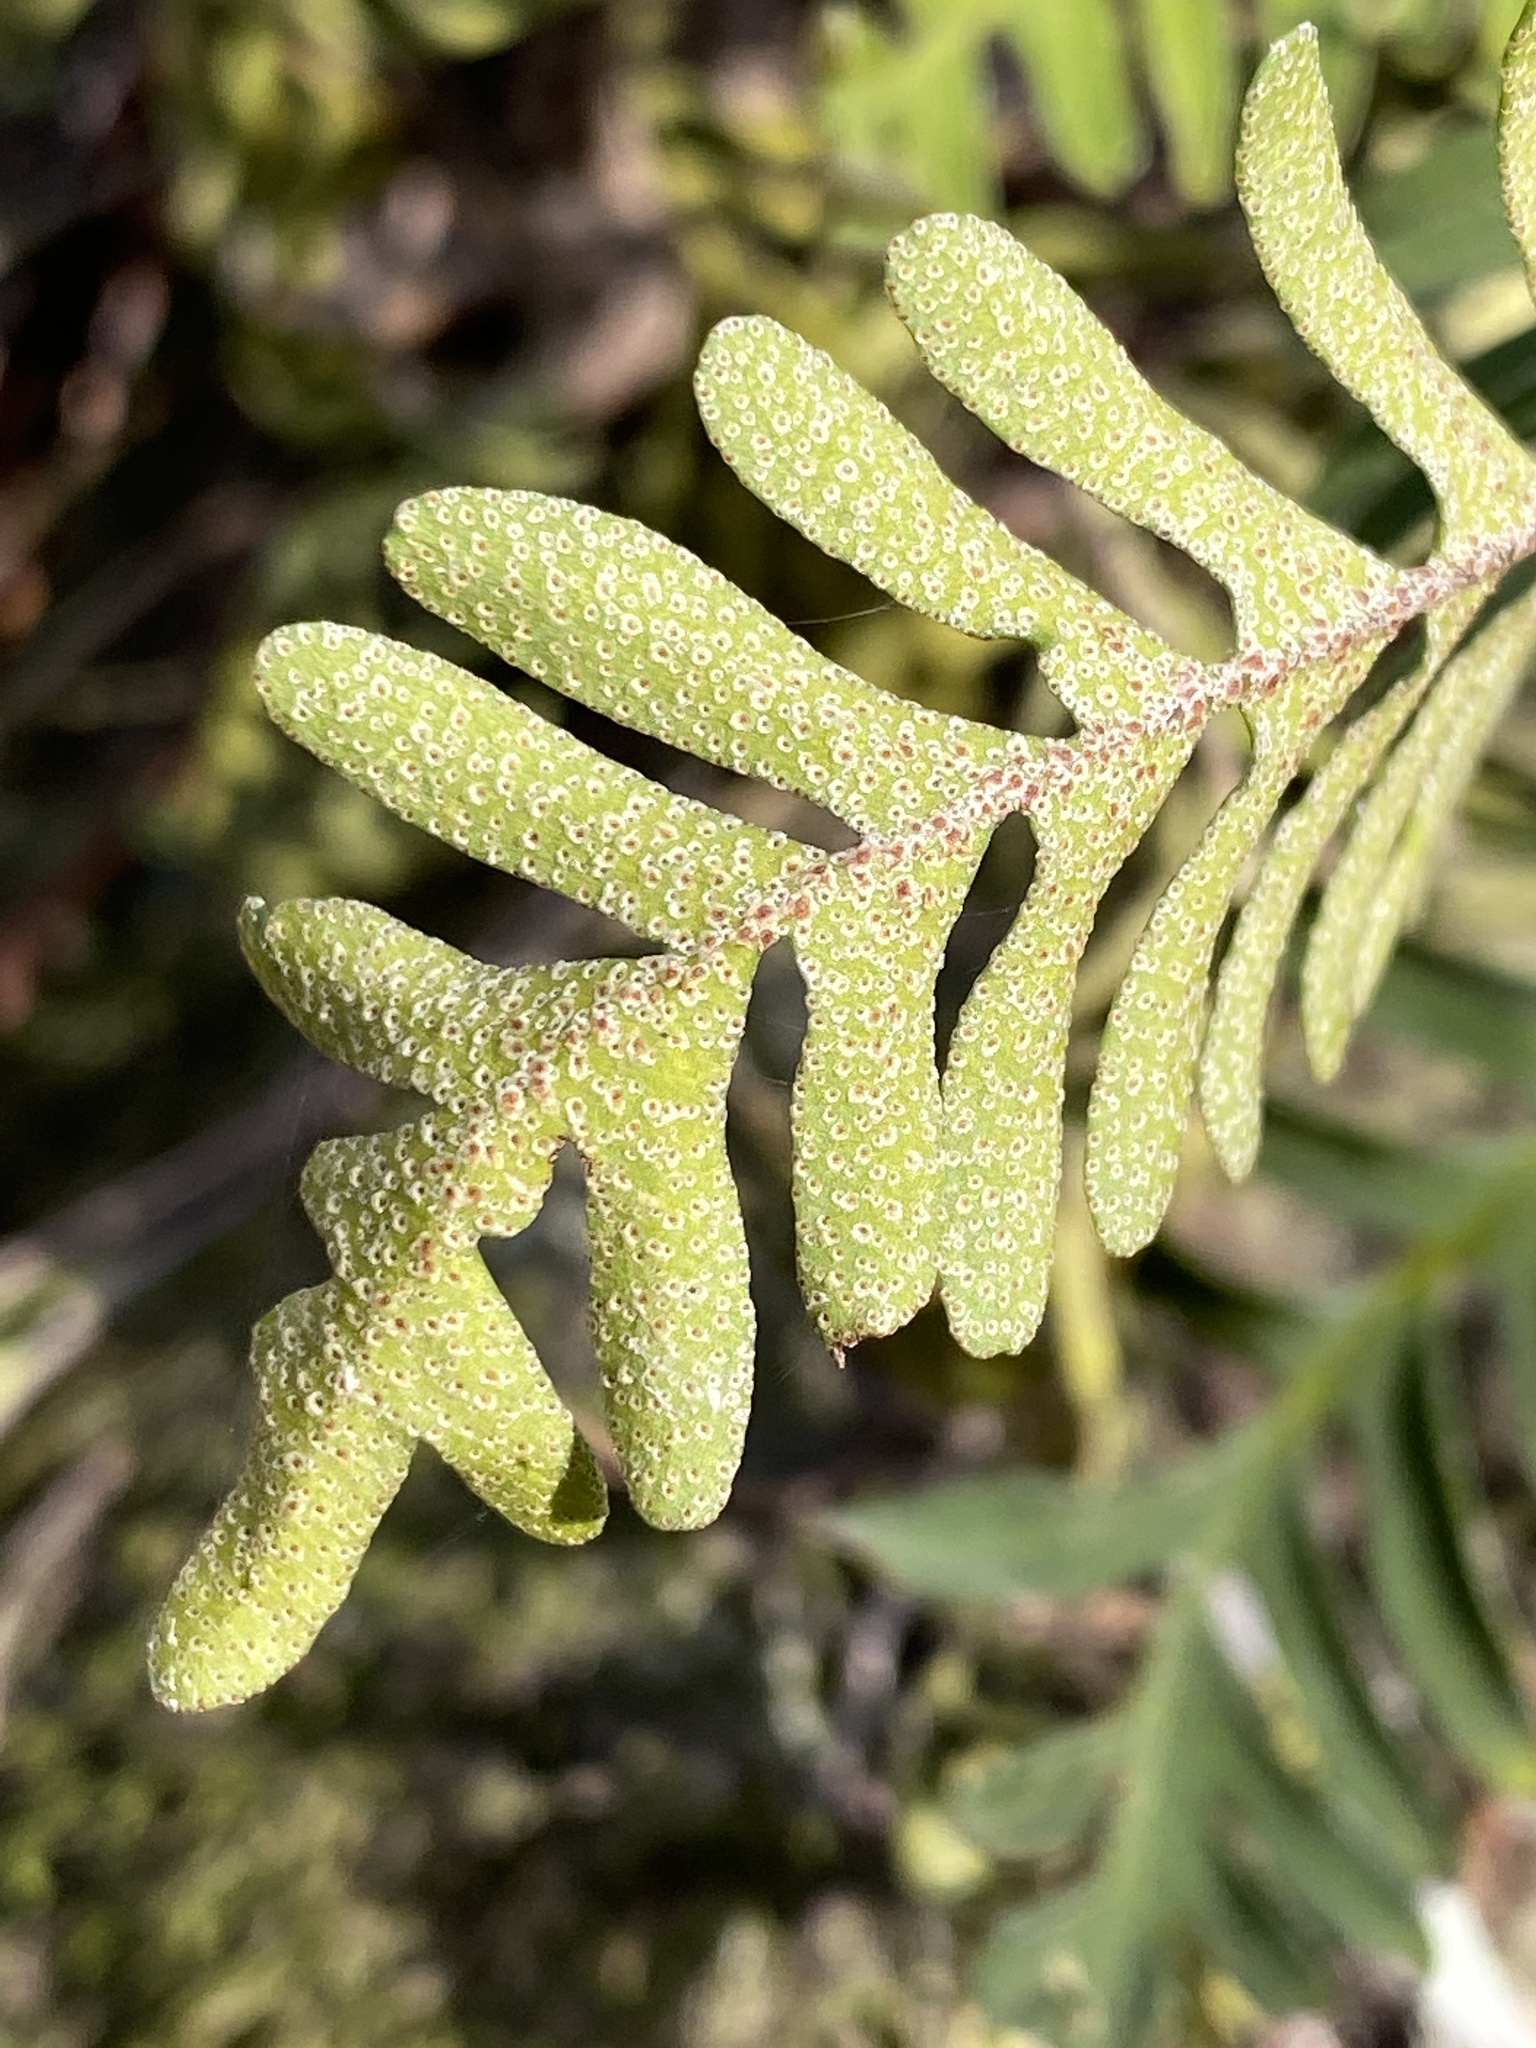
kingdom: Plantae
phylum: Tracheophyta
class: Polypodiopsida
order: Polypodiales
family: Polypodiaceae
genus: Pleopeltis
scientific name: Pleopeltis michauxiana
